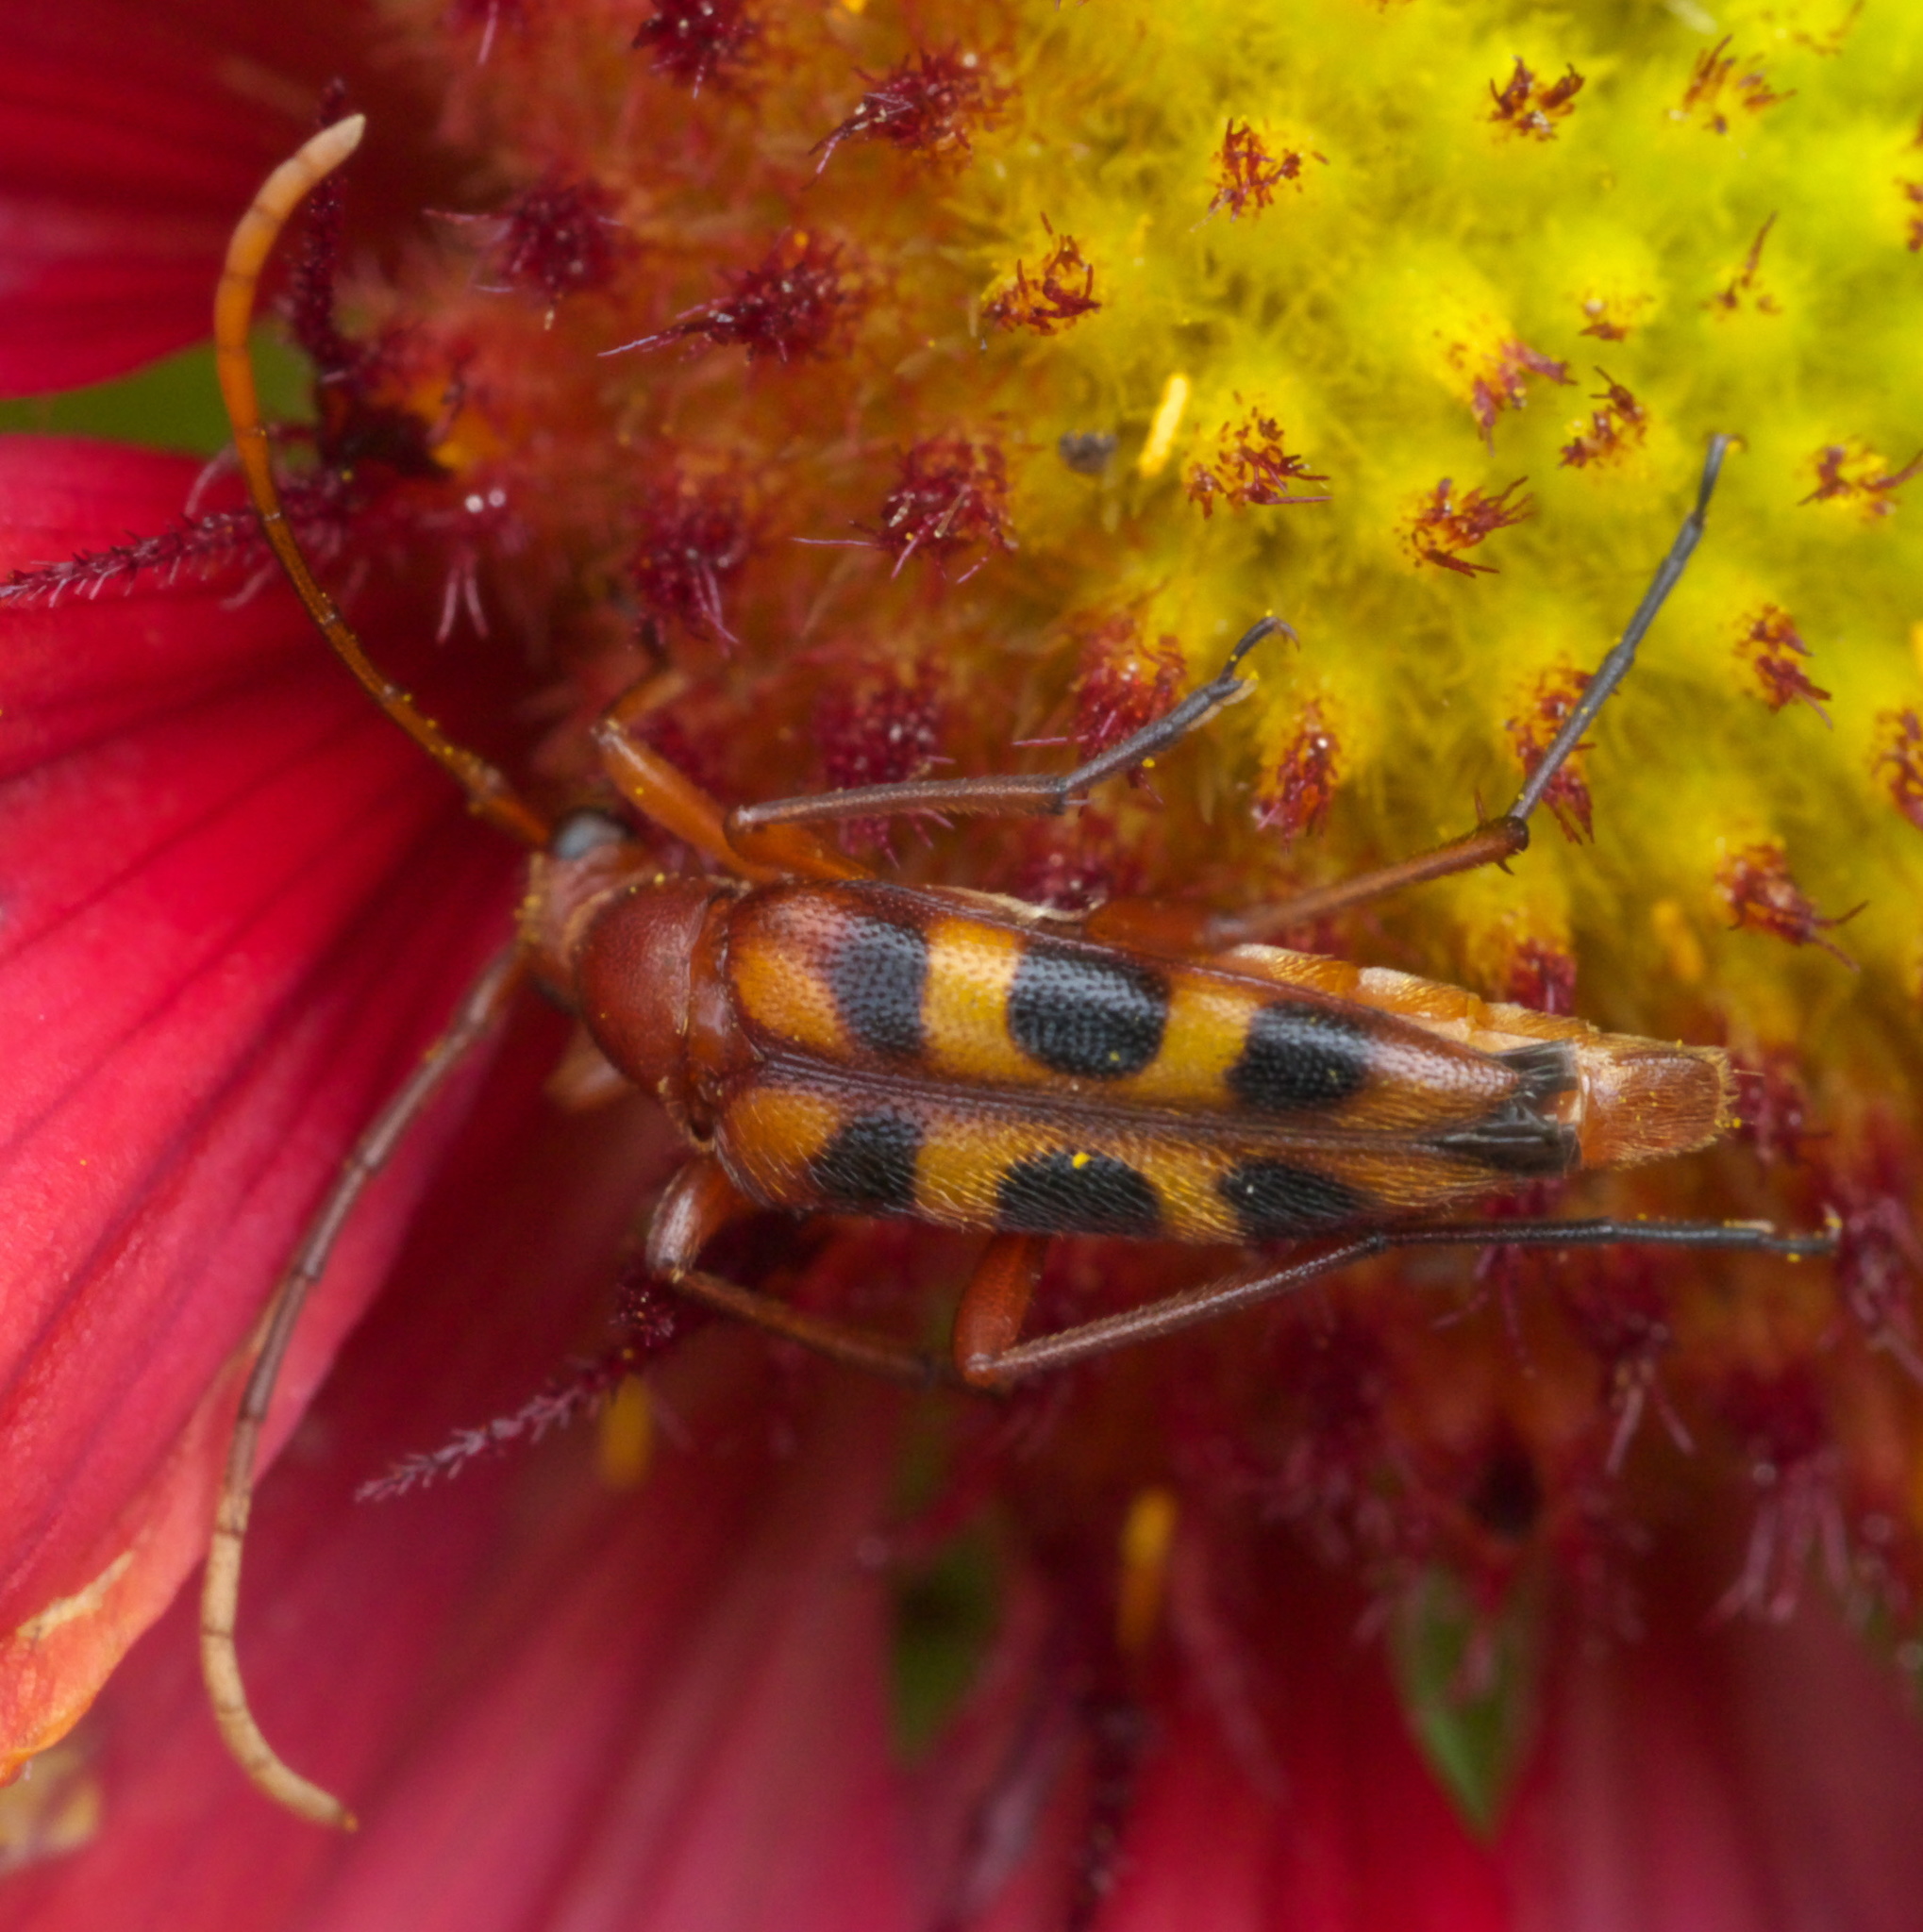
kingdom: Animalia
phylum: Arthropoda
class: Insecta
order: Coleoptera
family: Cerambycidae
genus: Strangalia
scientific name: Strangalia sexnotata
